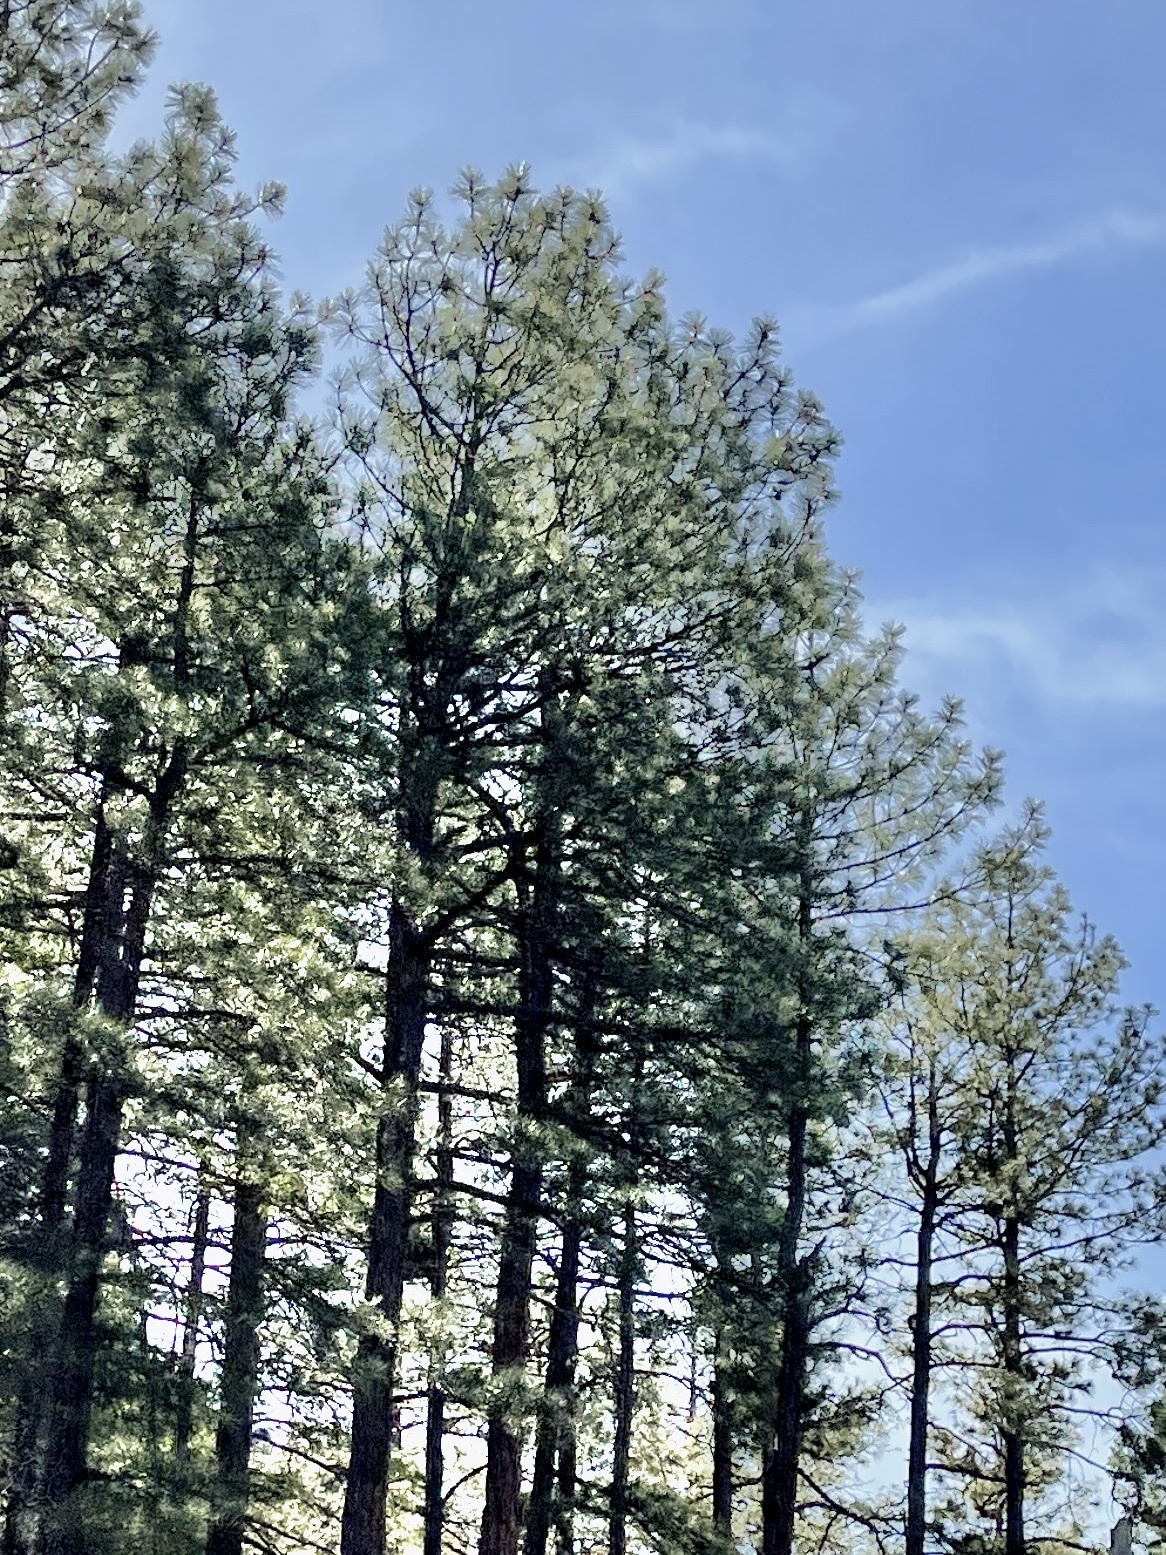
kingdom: Plantae
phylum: Tracheophyta
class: Pinopsida
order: Pinales
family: Pinaceae
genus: Pinus
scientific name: Pinus ponderosa
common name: Western yellow-pine
